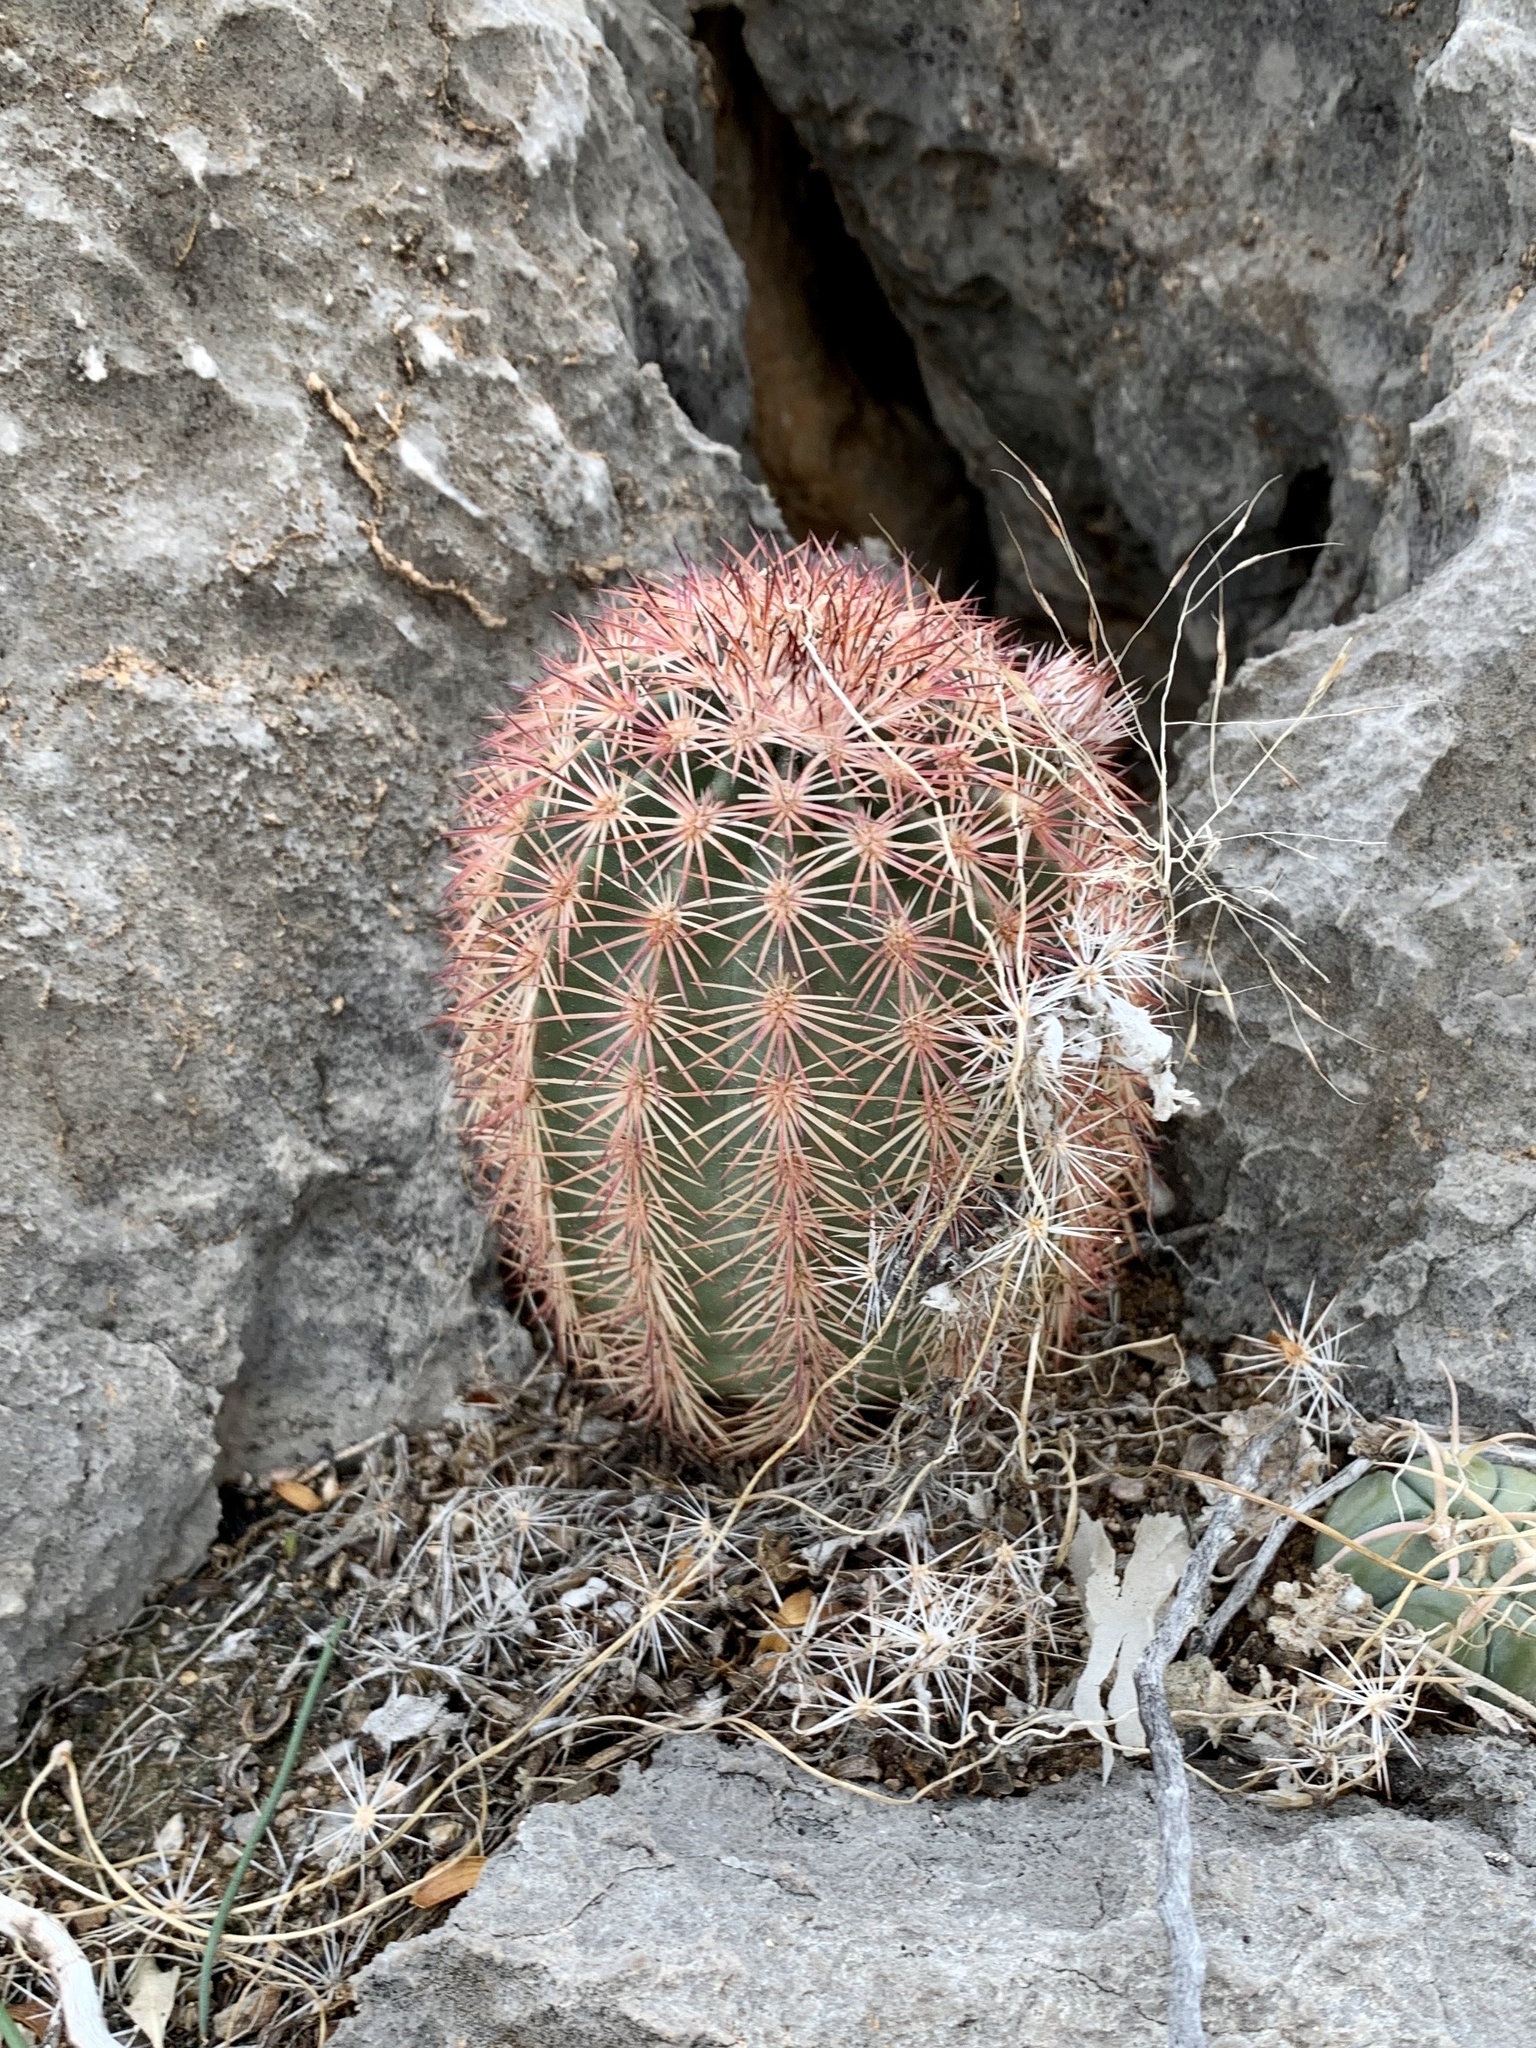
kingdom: Plantae
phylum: Tracheophyta
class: Magnoliopsida
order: Caryophyllales
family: Cactaceae
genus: Echinocereus
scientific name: Echinocereus dasyacanthus
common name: Spiny hedgehog cactus
